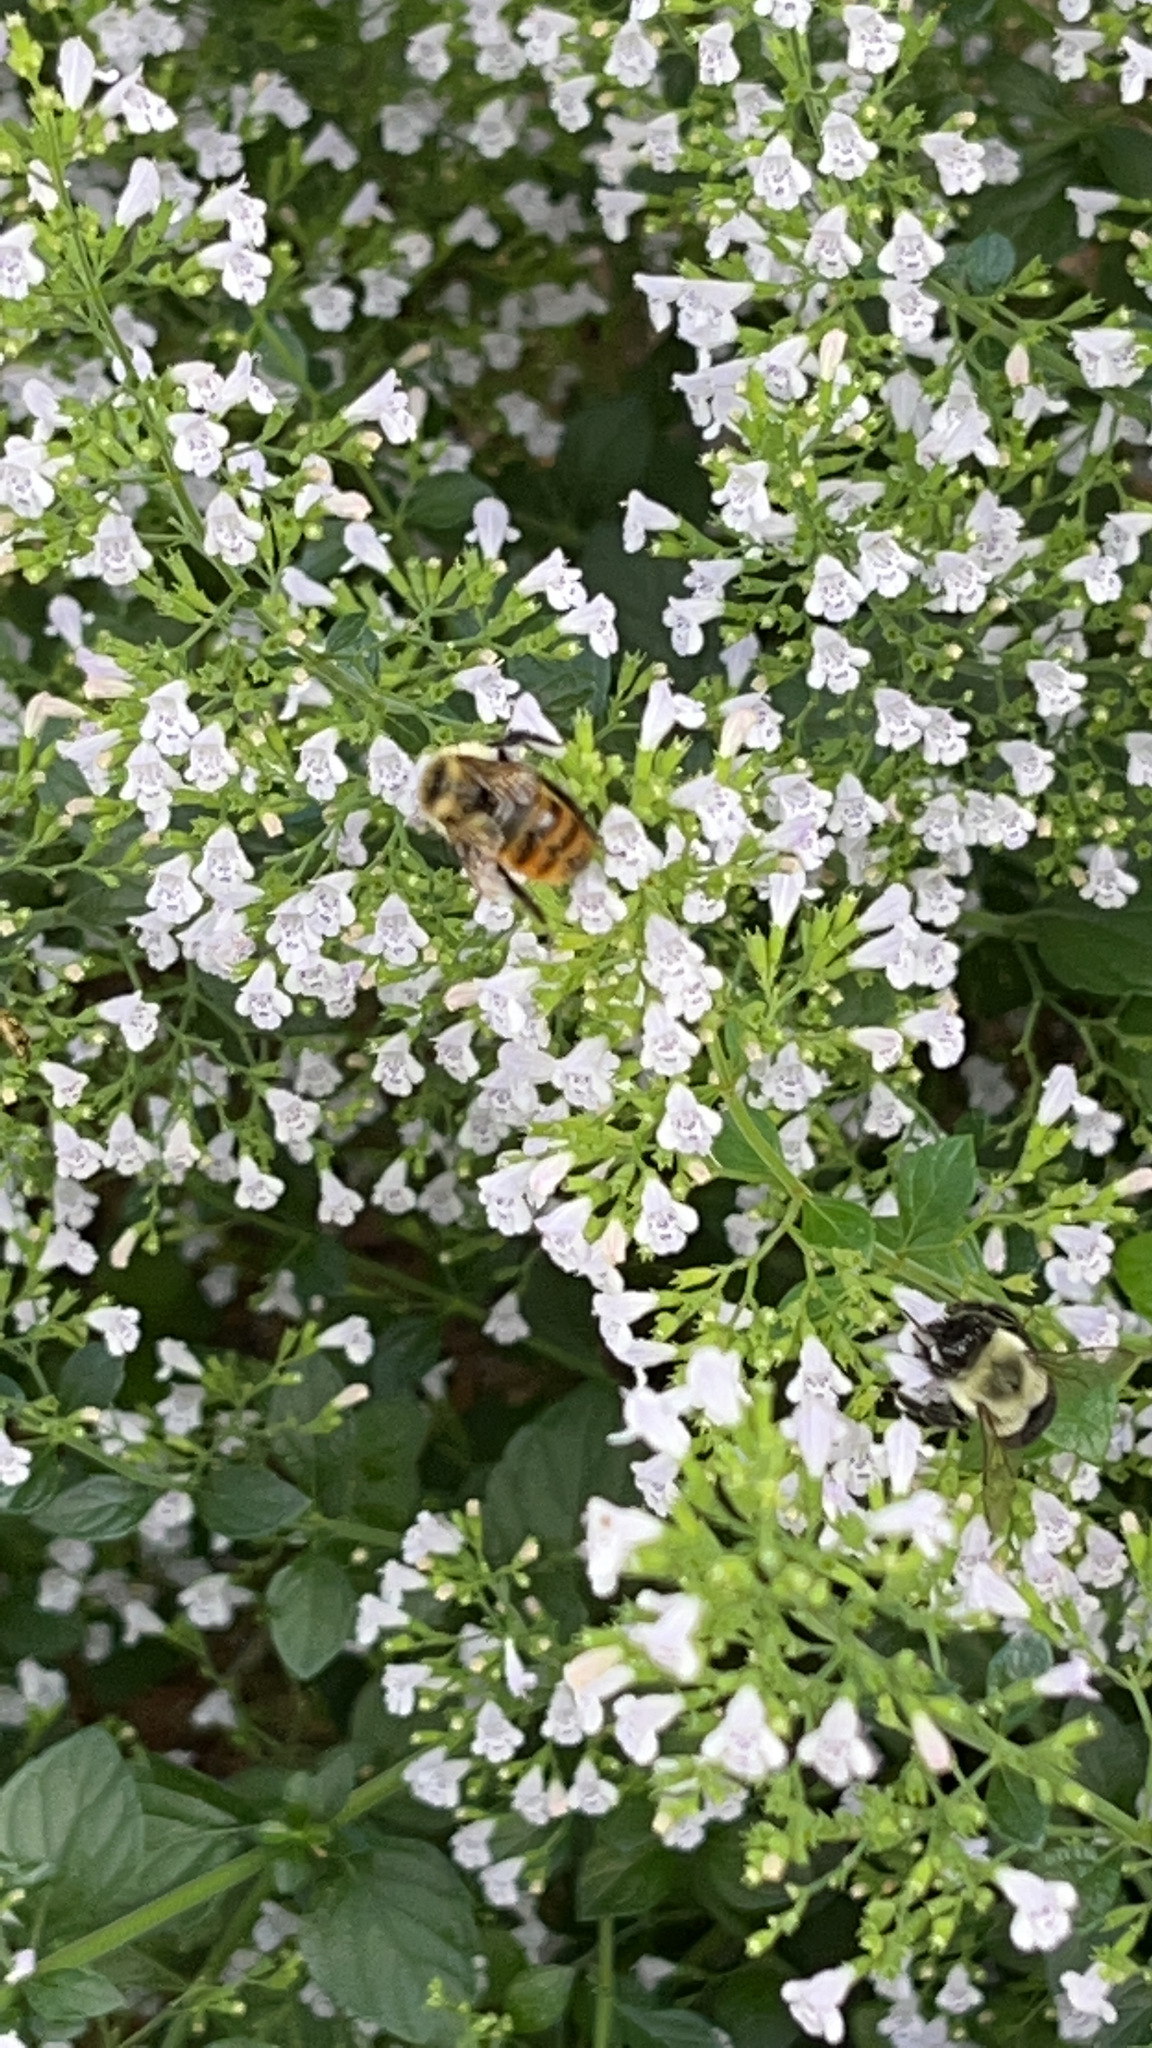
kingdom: Animalia
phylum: Arthropoda
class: Insecta
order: Hymenoptera
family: Apidae
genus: Bombus
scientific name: Bombus impatiens
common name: Common eastern bumble bee
